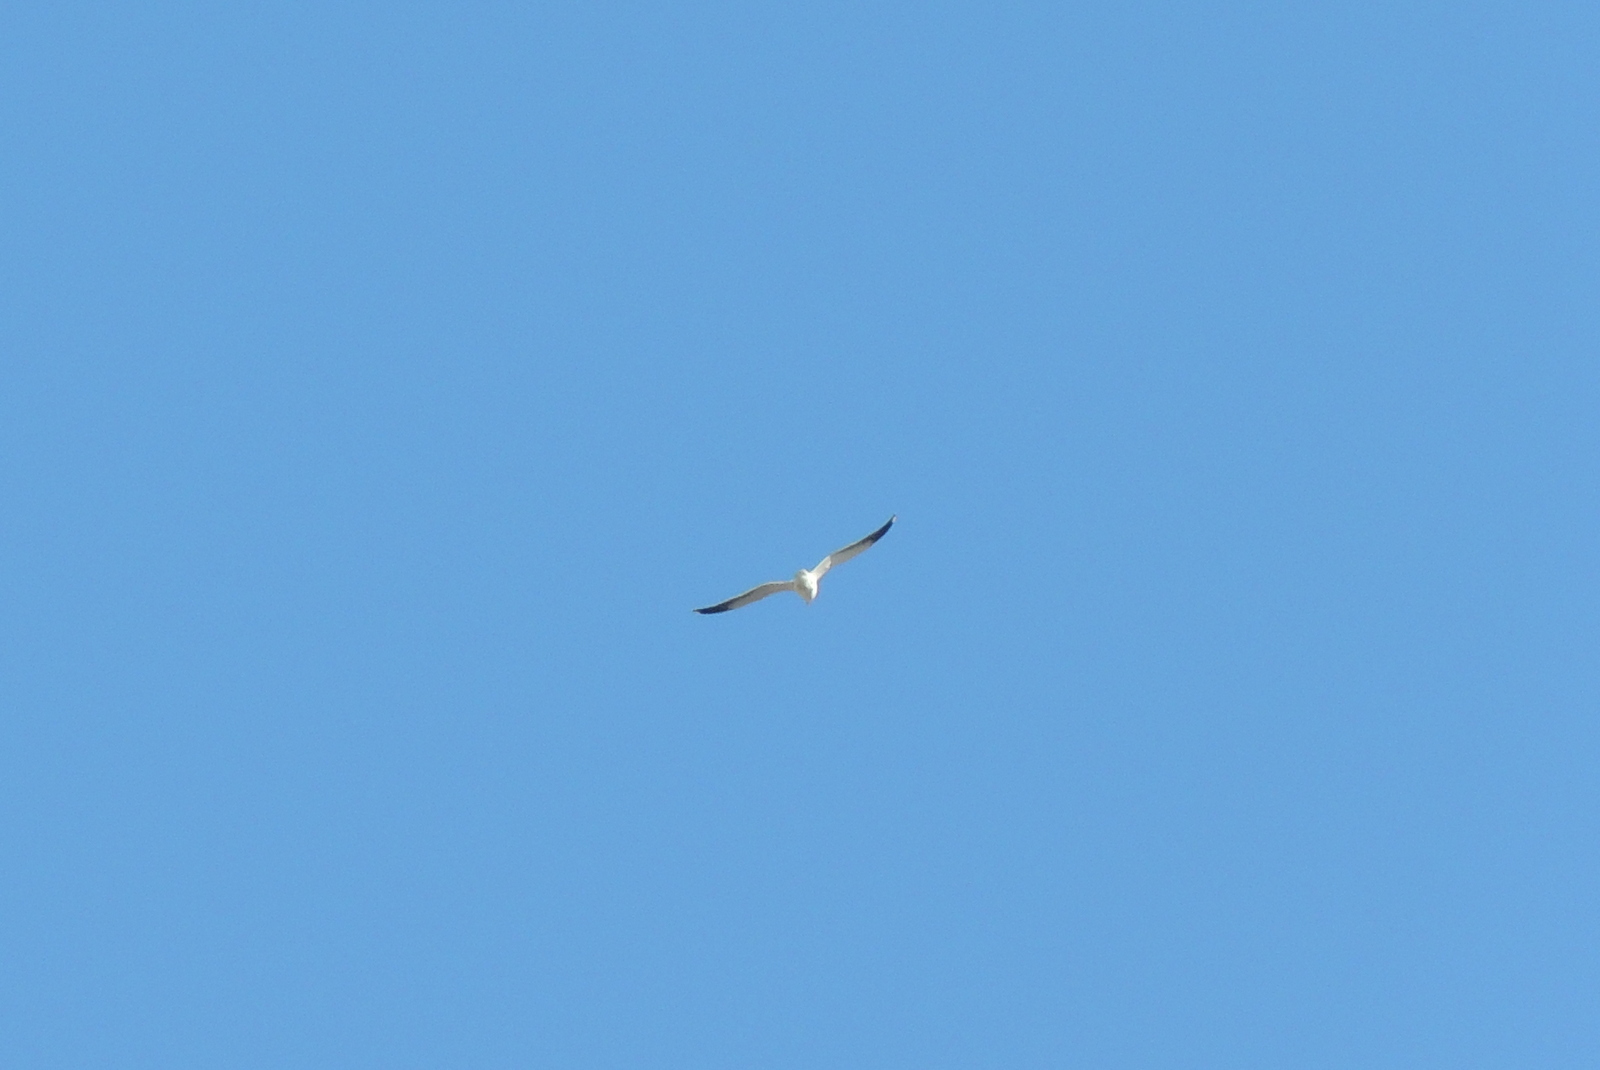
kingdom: Animalia
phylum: Chordata
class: Aves
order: Charadriiformes
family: Laridae
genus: Larus
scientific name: Larus occidentalis
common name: Western gull
